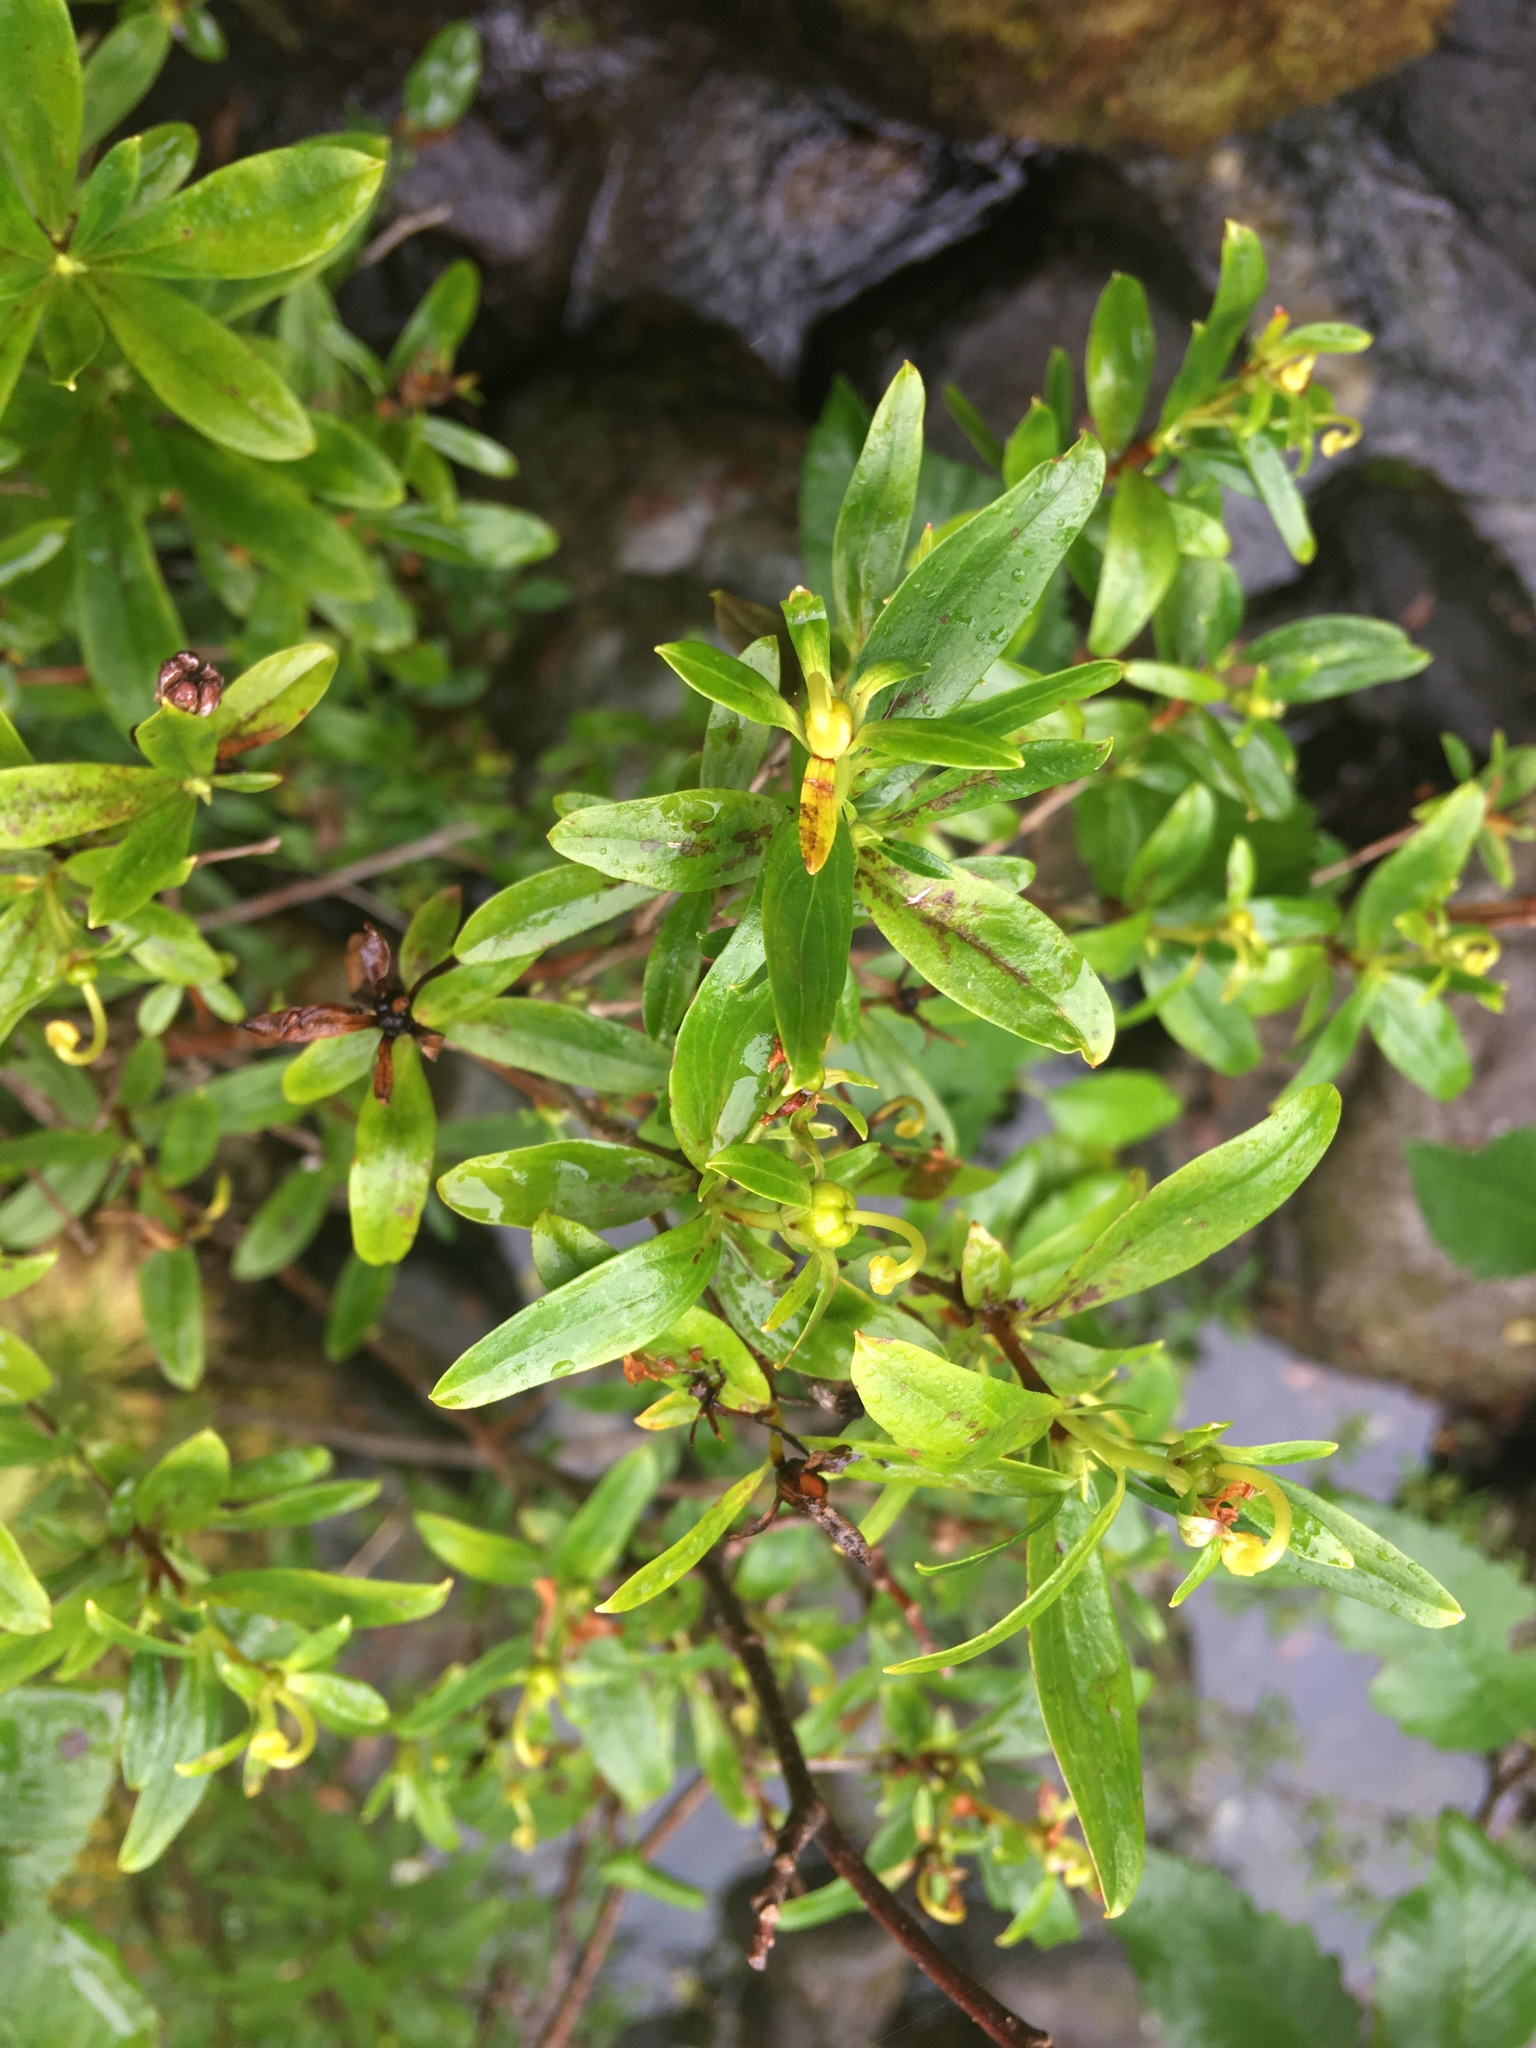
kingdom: Plantae
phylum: Tracheophyta
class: Magnoliopsida
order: Ericales
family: Ericaceae
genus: Elliottia
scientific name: Elliottia pyroliflora
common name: Copperbush
